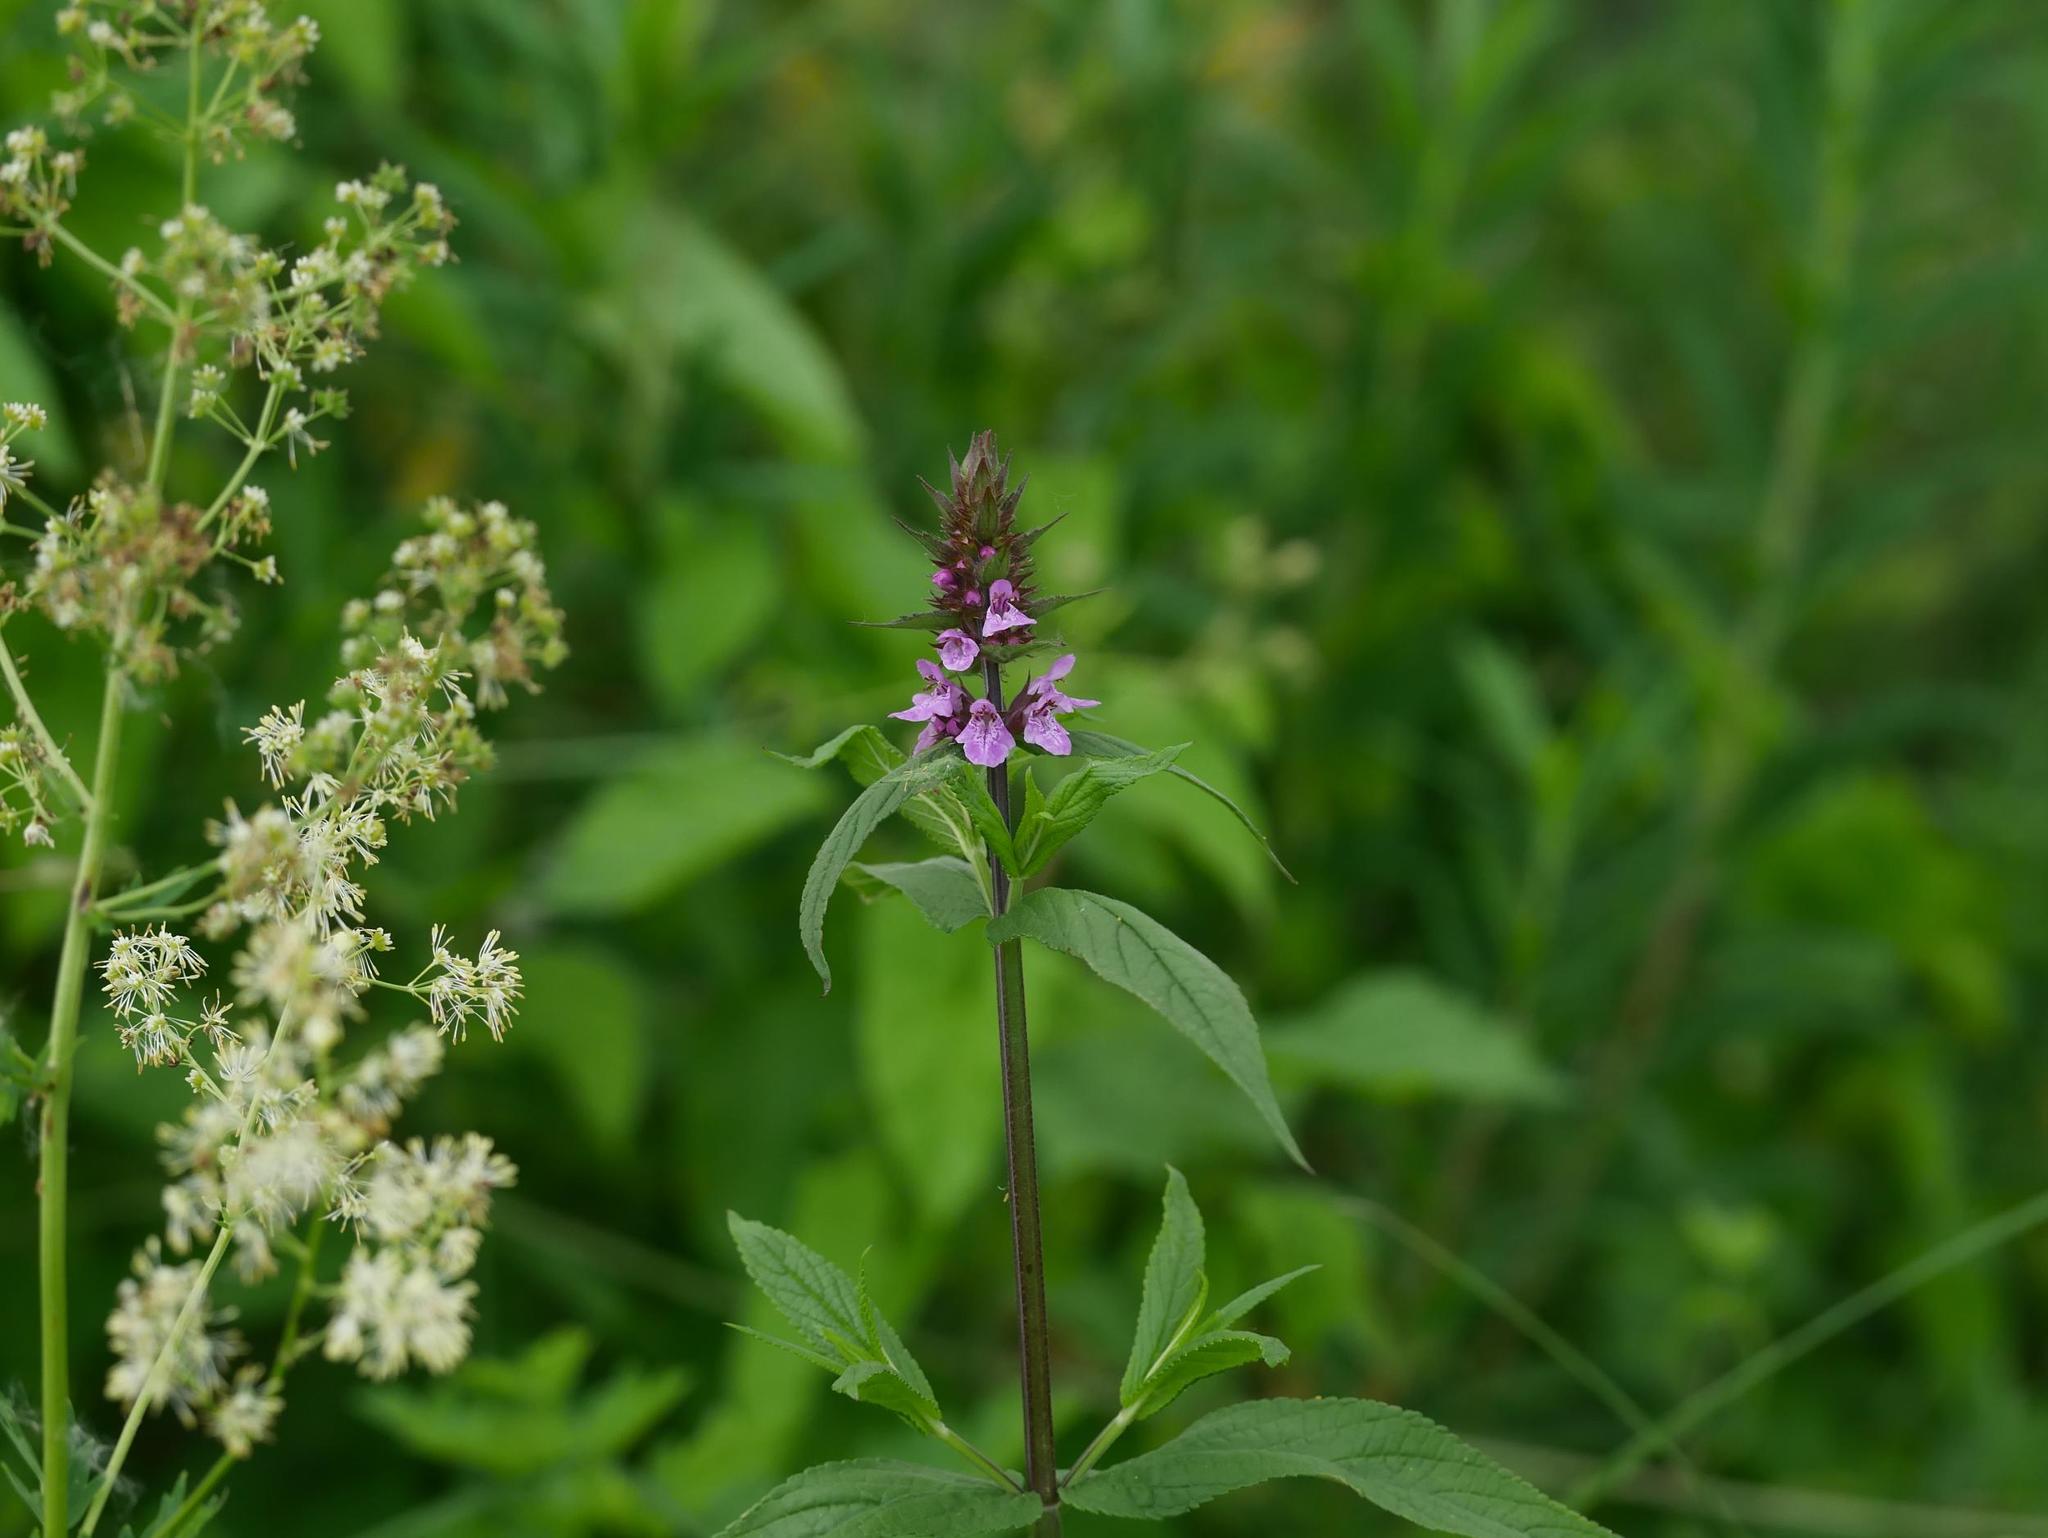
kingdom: Plantae
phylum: Tracheophyta
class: Magnoliopsida
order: Lamiales
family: Lamiaceae
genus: Stachys
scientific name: Stachys palustris
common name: Marsh woundwort
